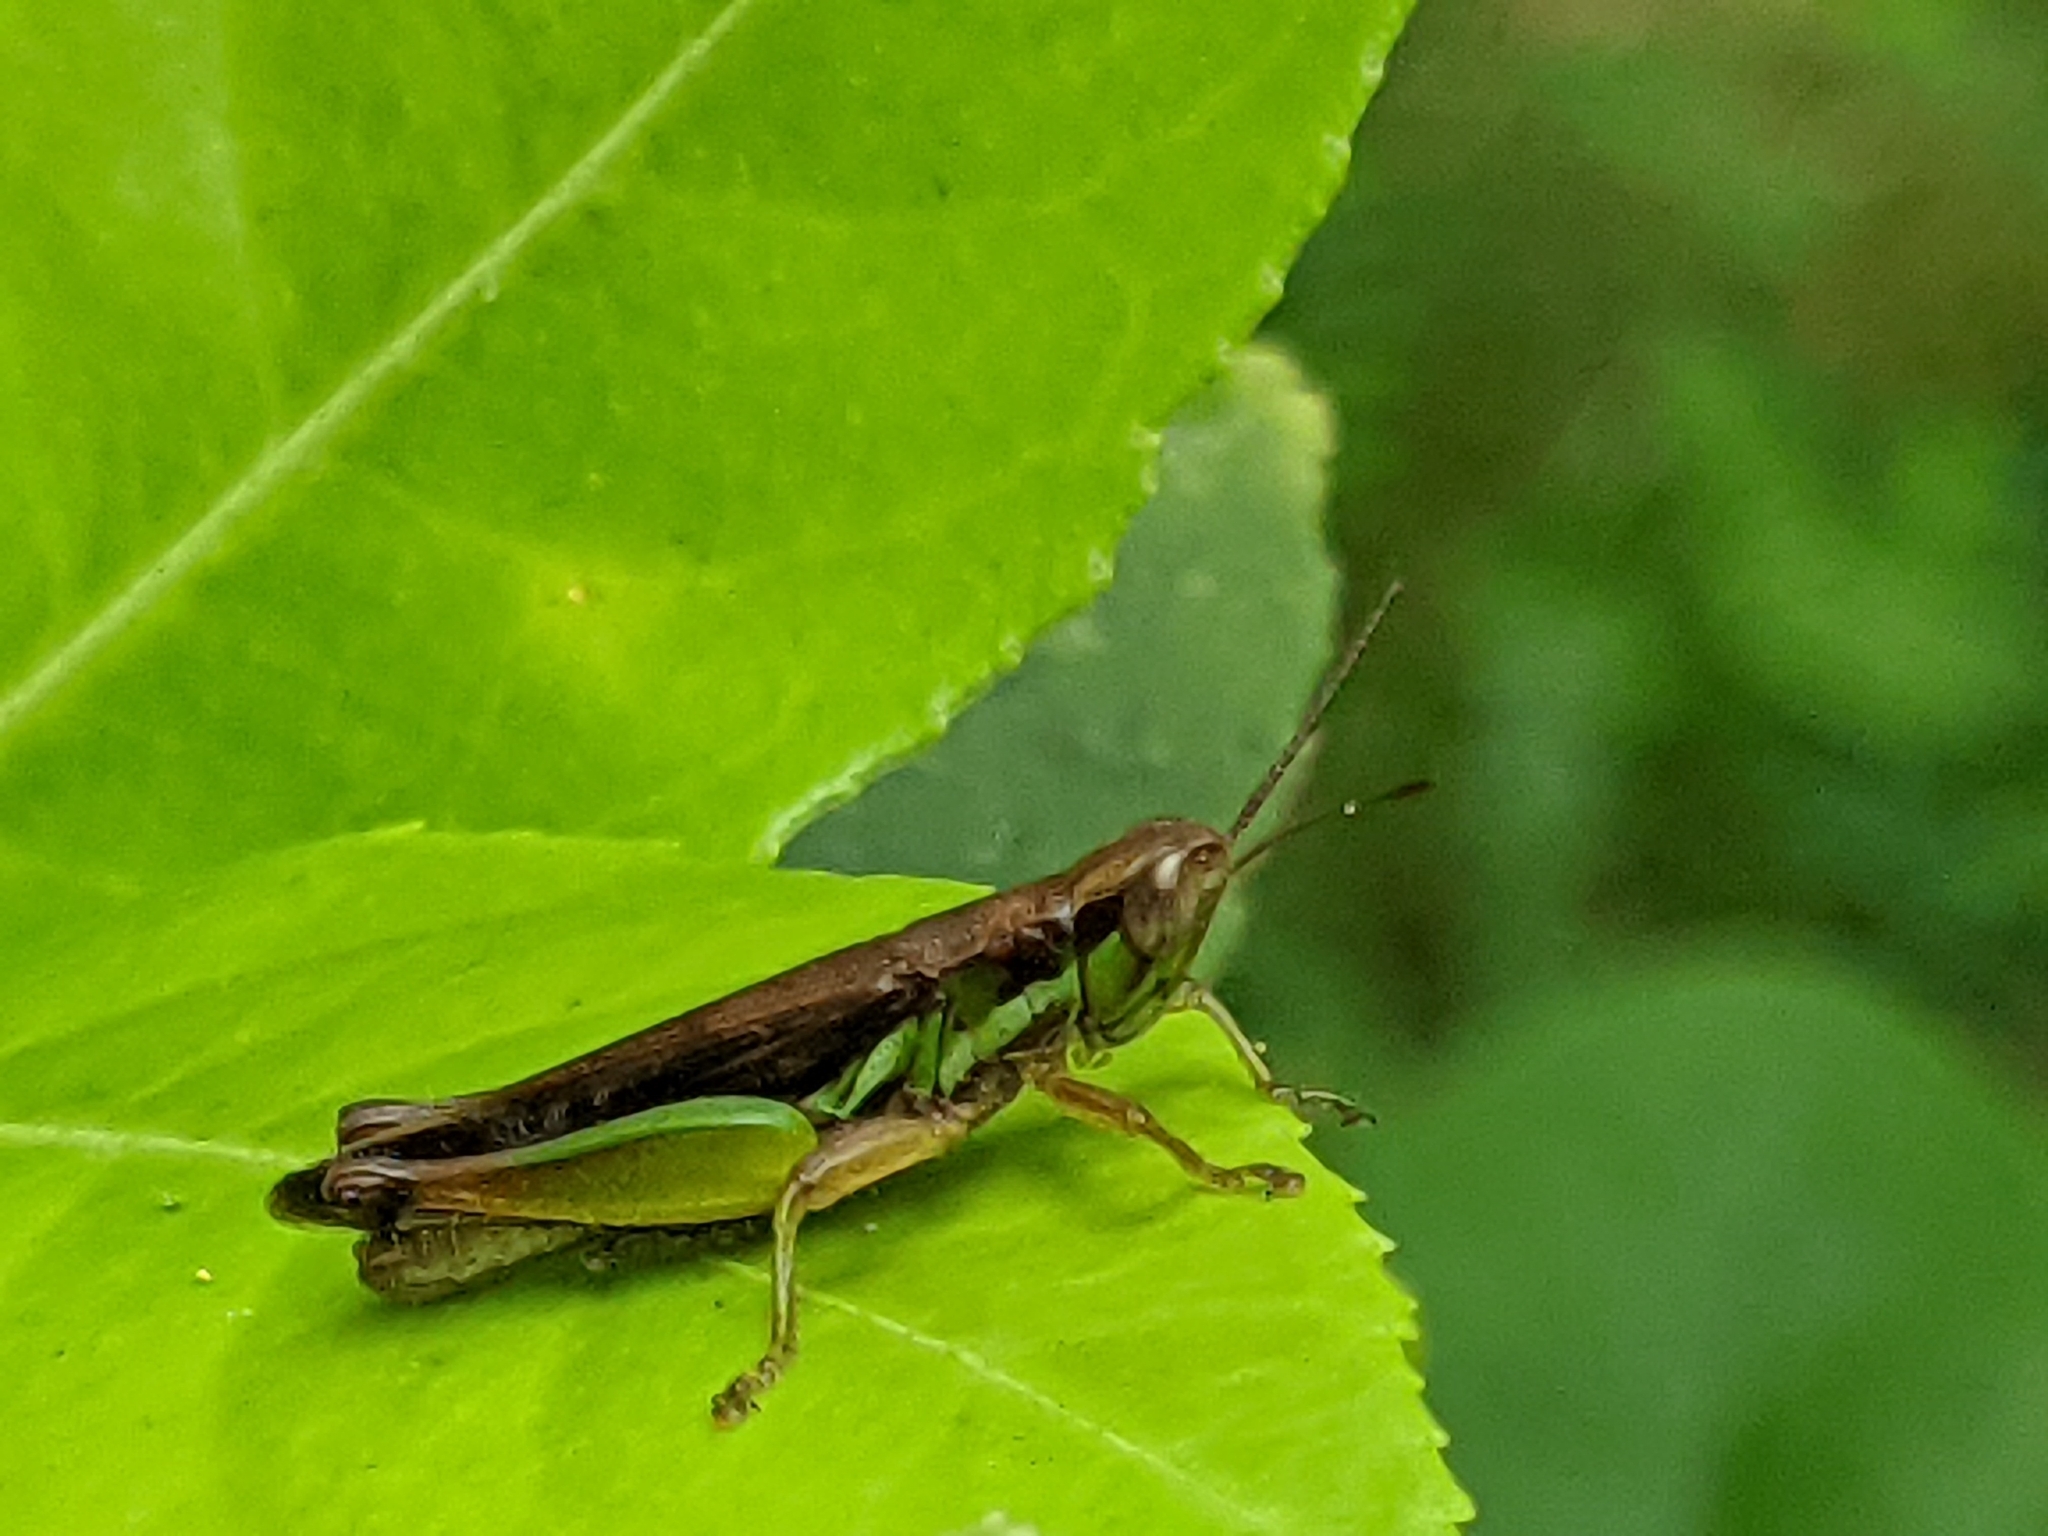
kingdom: Animalia
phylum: Arthropoda
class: Insecta
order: Orthoptera
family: Acrididae
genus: Spathosternum
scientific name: Spathosternum prasiniferum
